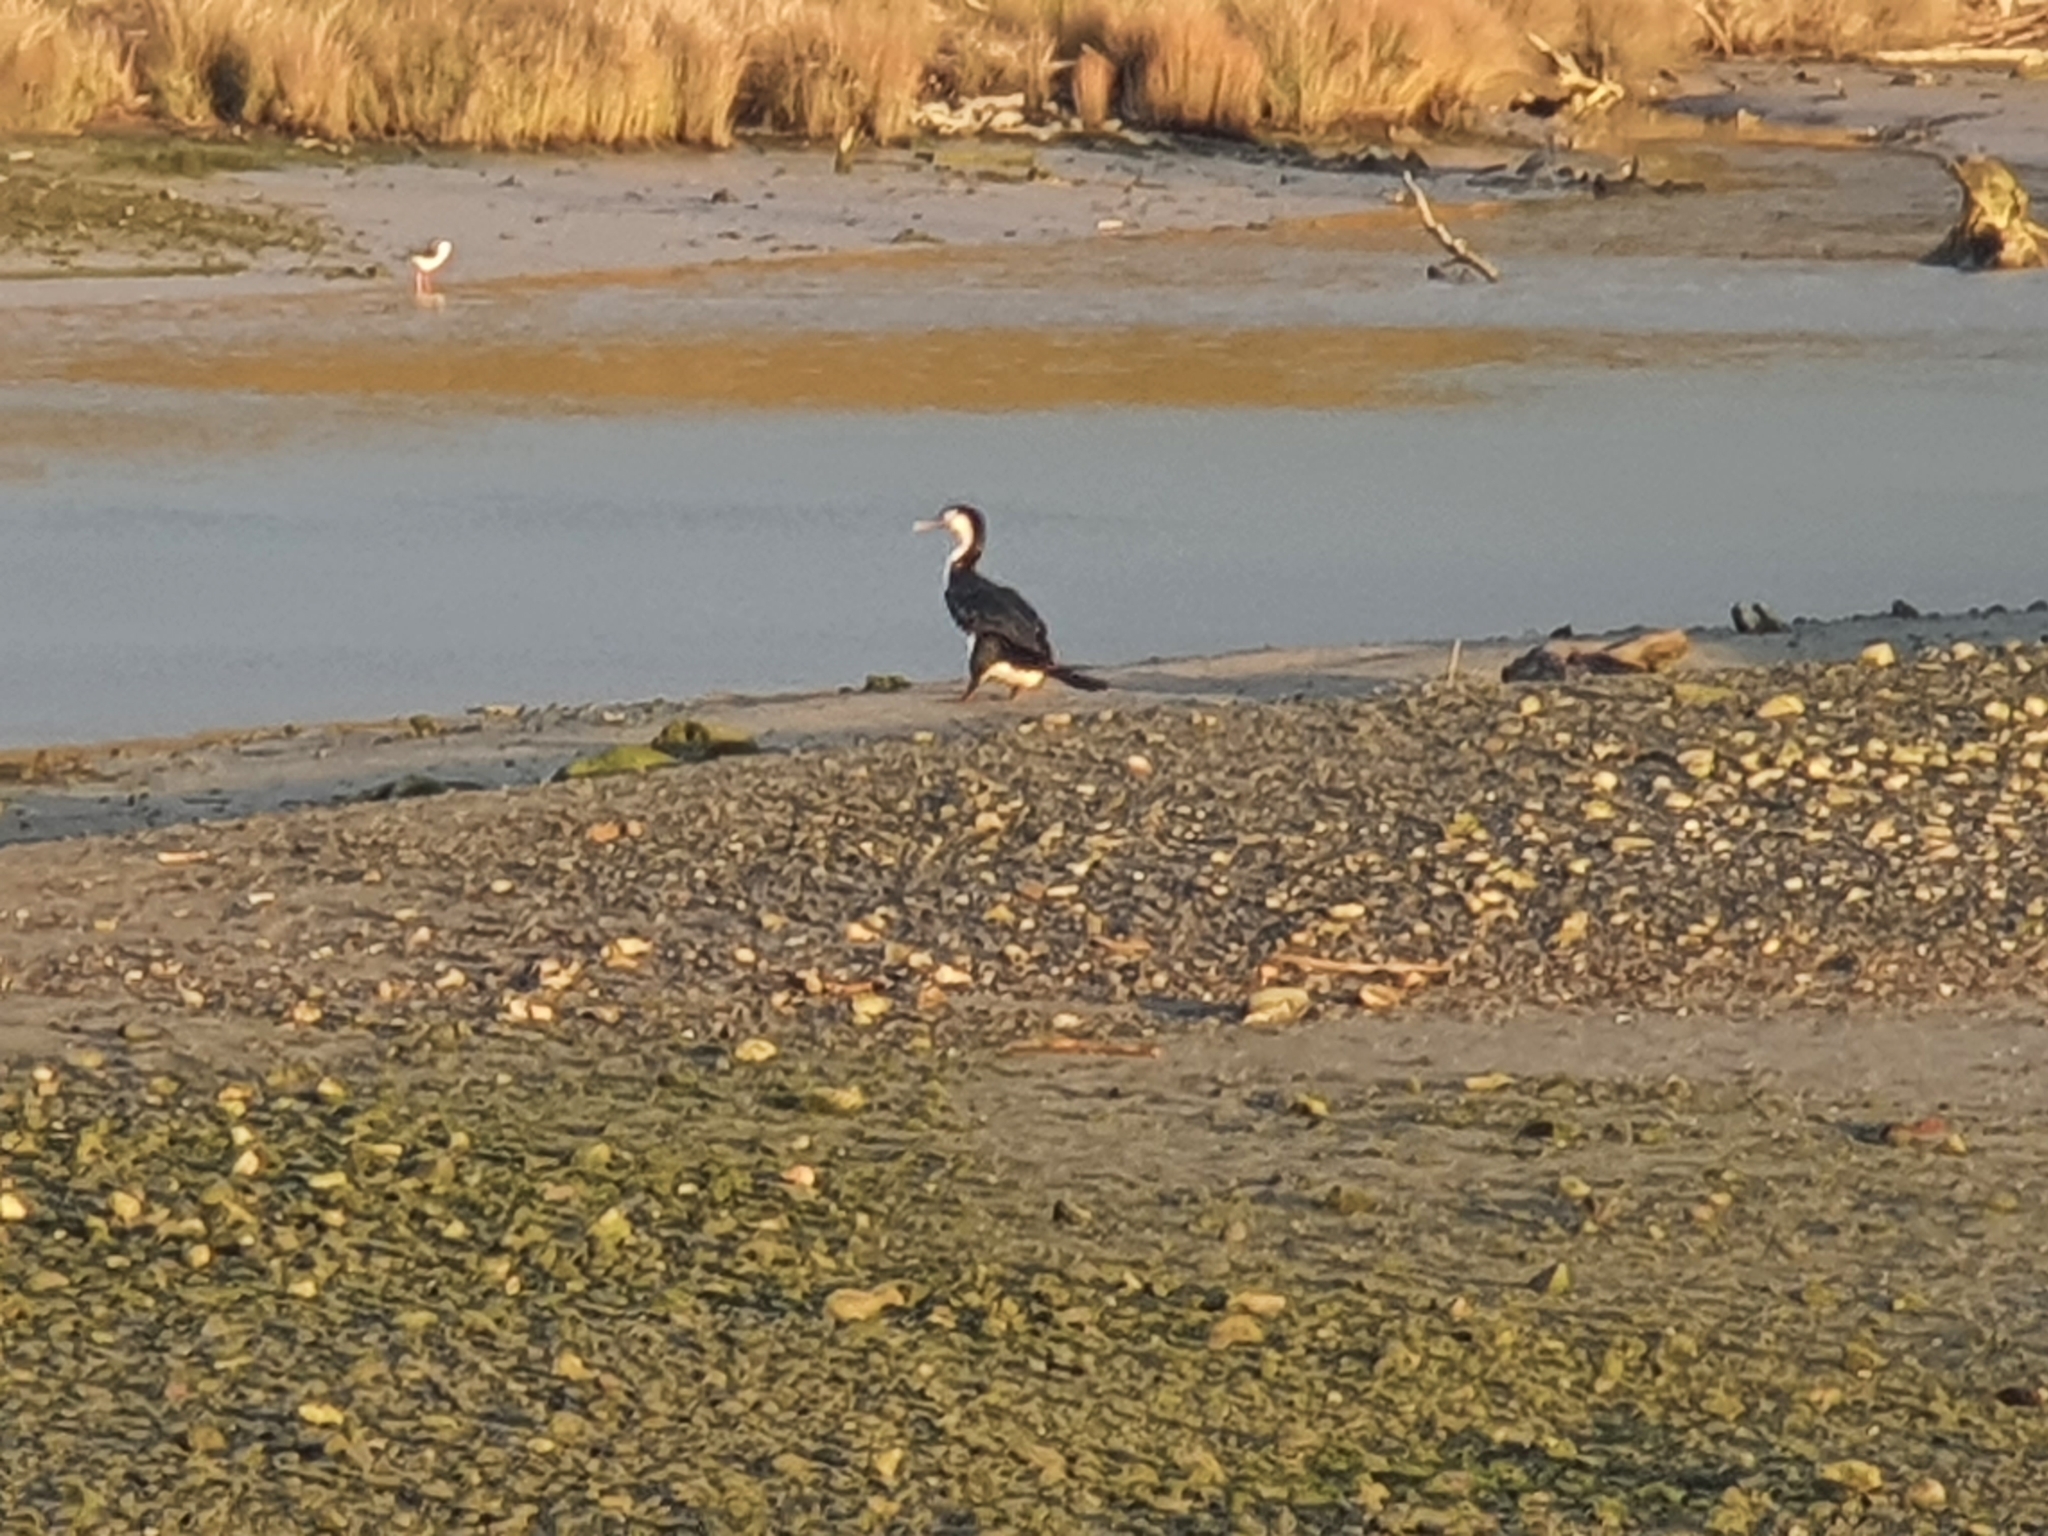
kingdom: Animalia
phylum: Chordata
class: Aves
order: Suliformes
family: Phalacrocoracidae
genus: Phalacrocorax
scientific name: Phalacrocorax varius
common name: Pied cormorant
